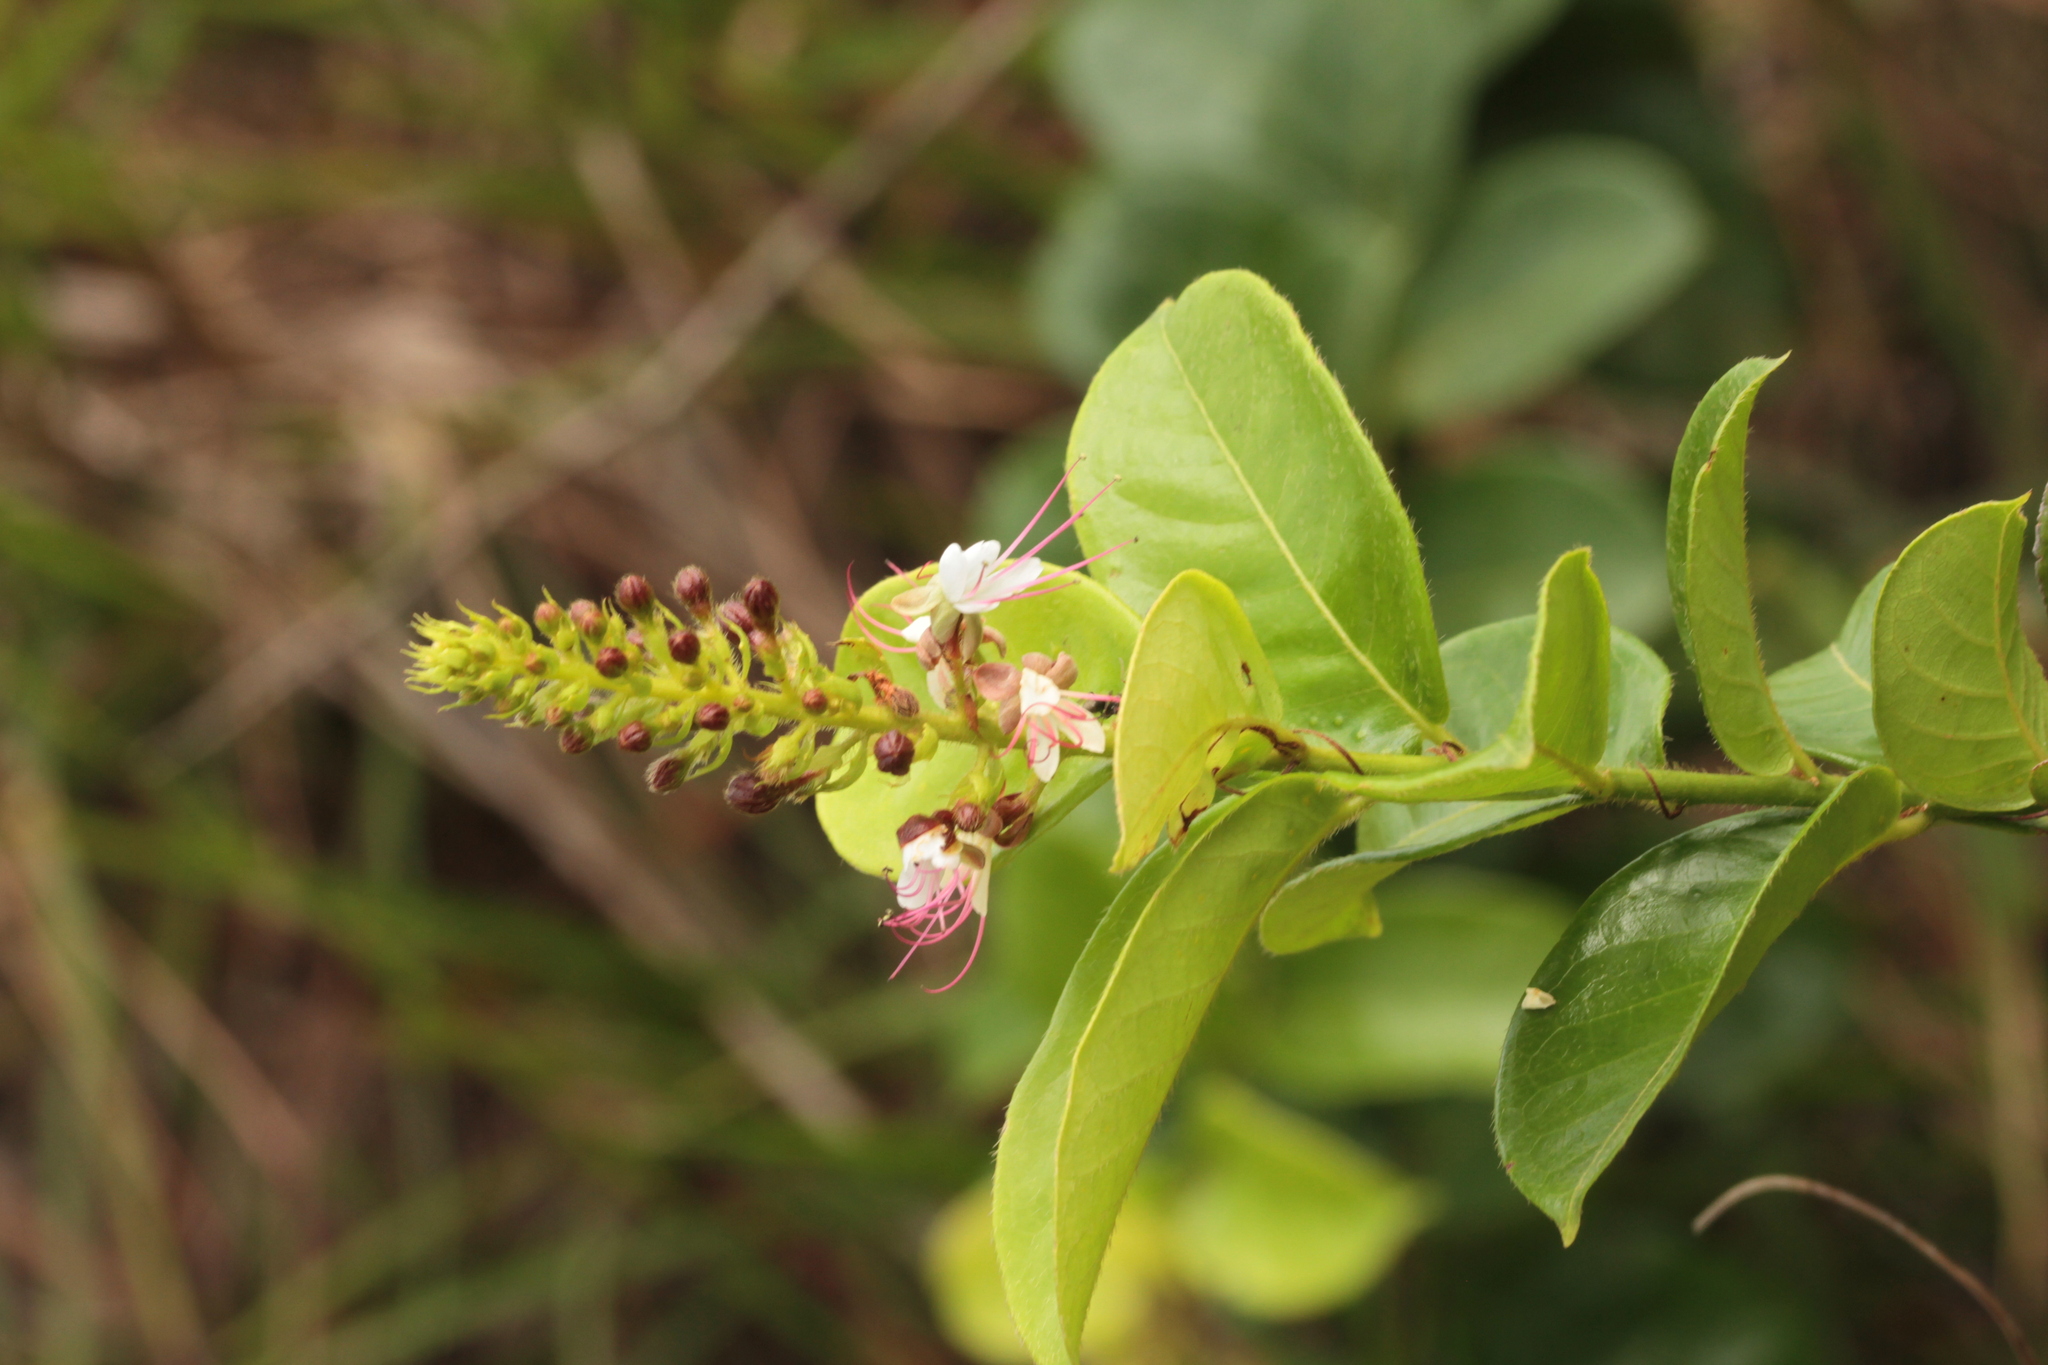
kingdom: Plantae
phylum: Tracheophyta
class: Magnoliopsida
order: Malpighiales
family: Chrysobalanaceae
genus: Hirtella
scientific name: Hirtella paniculata
